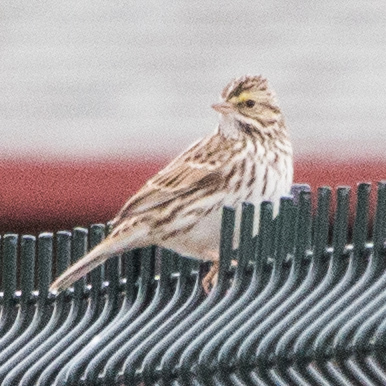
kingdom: Animalia
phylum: Chordata
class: Aves
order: Passeriformes
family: Passerellidae
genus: Passerculus
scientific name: Passerculus sandwichensis
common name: Savannah sparrow
